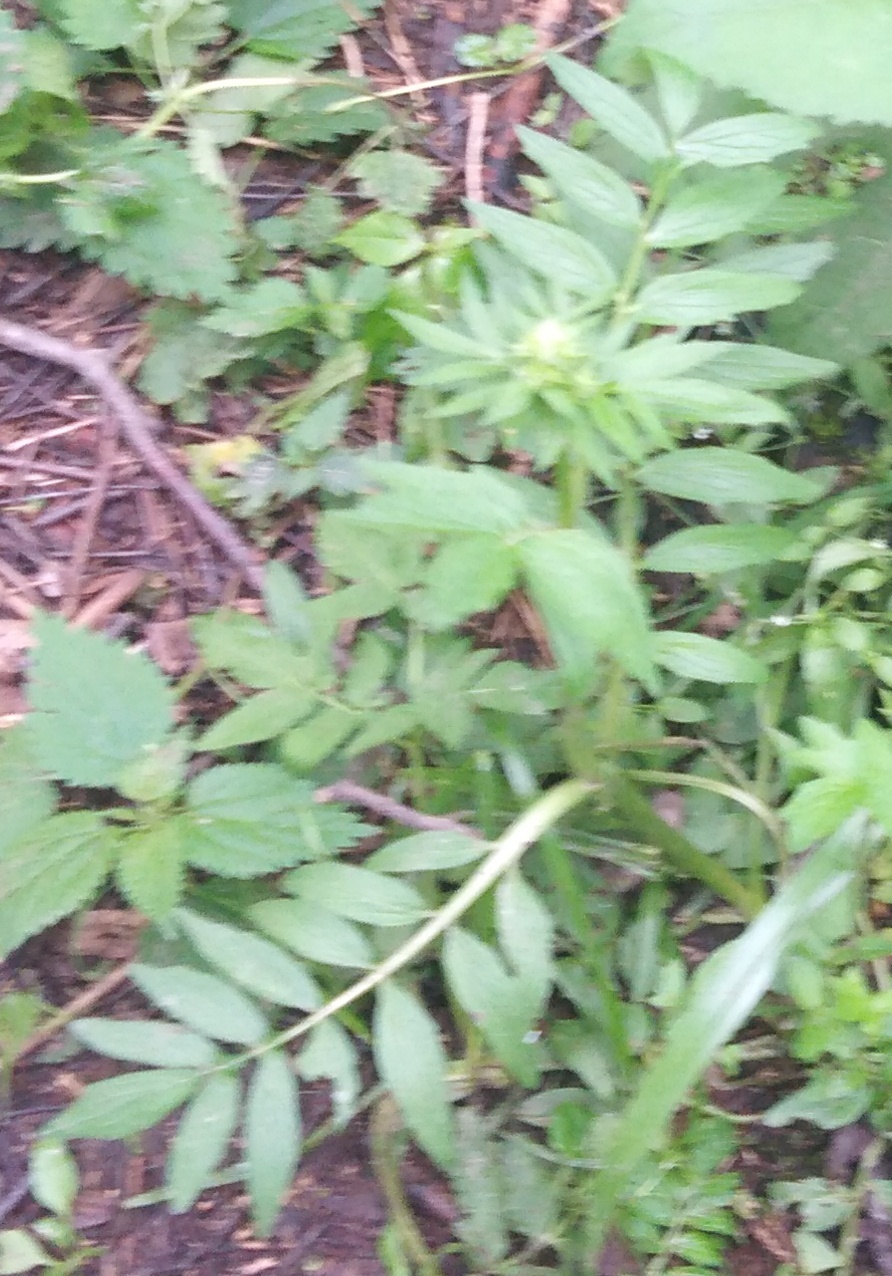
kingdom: Plantae
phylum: Tracheophyta
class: Magnoliopsida
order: Dipsacales
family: Caprifoliaceae
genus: Valeriana
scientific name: Valeriana officinalis
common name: Common valerian
